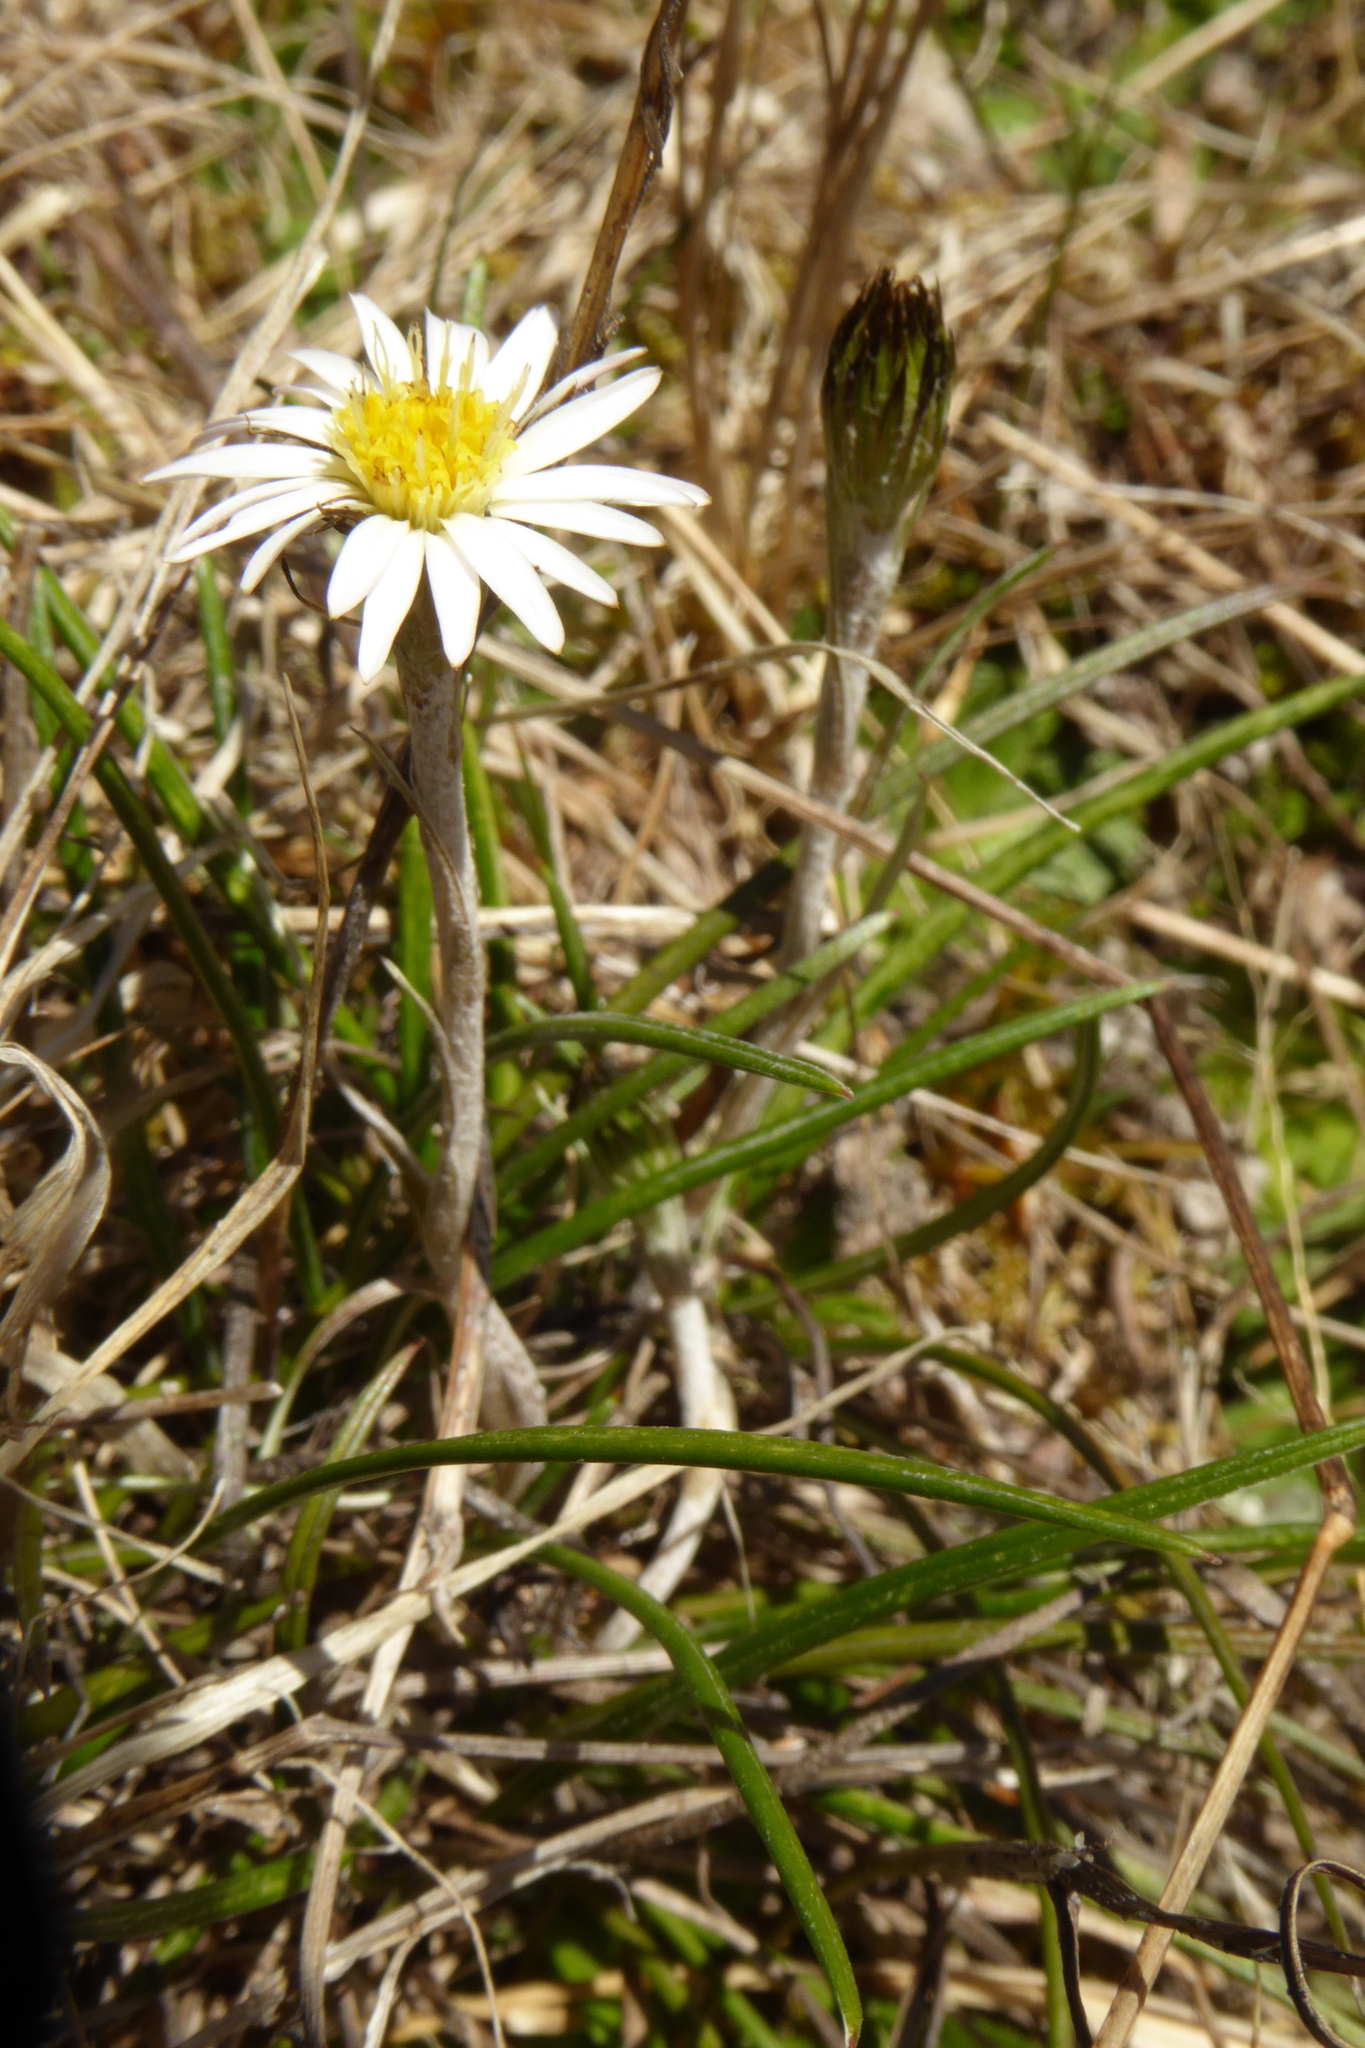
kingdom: Plantae
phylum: Tracheophyta
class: Magnoliopsida
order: Asterales
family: Asteraceae
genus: Celmisia
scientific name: Celmisia gracilenta
